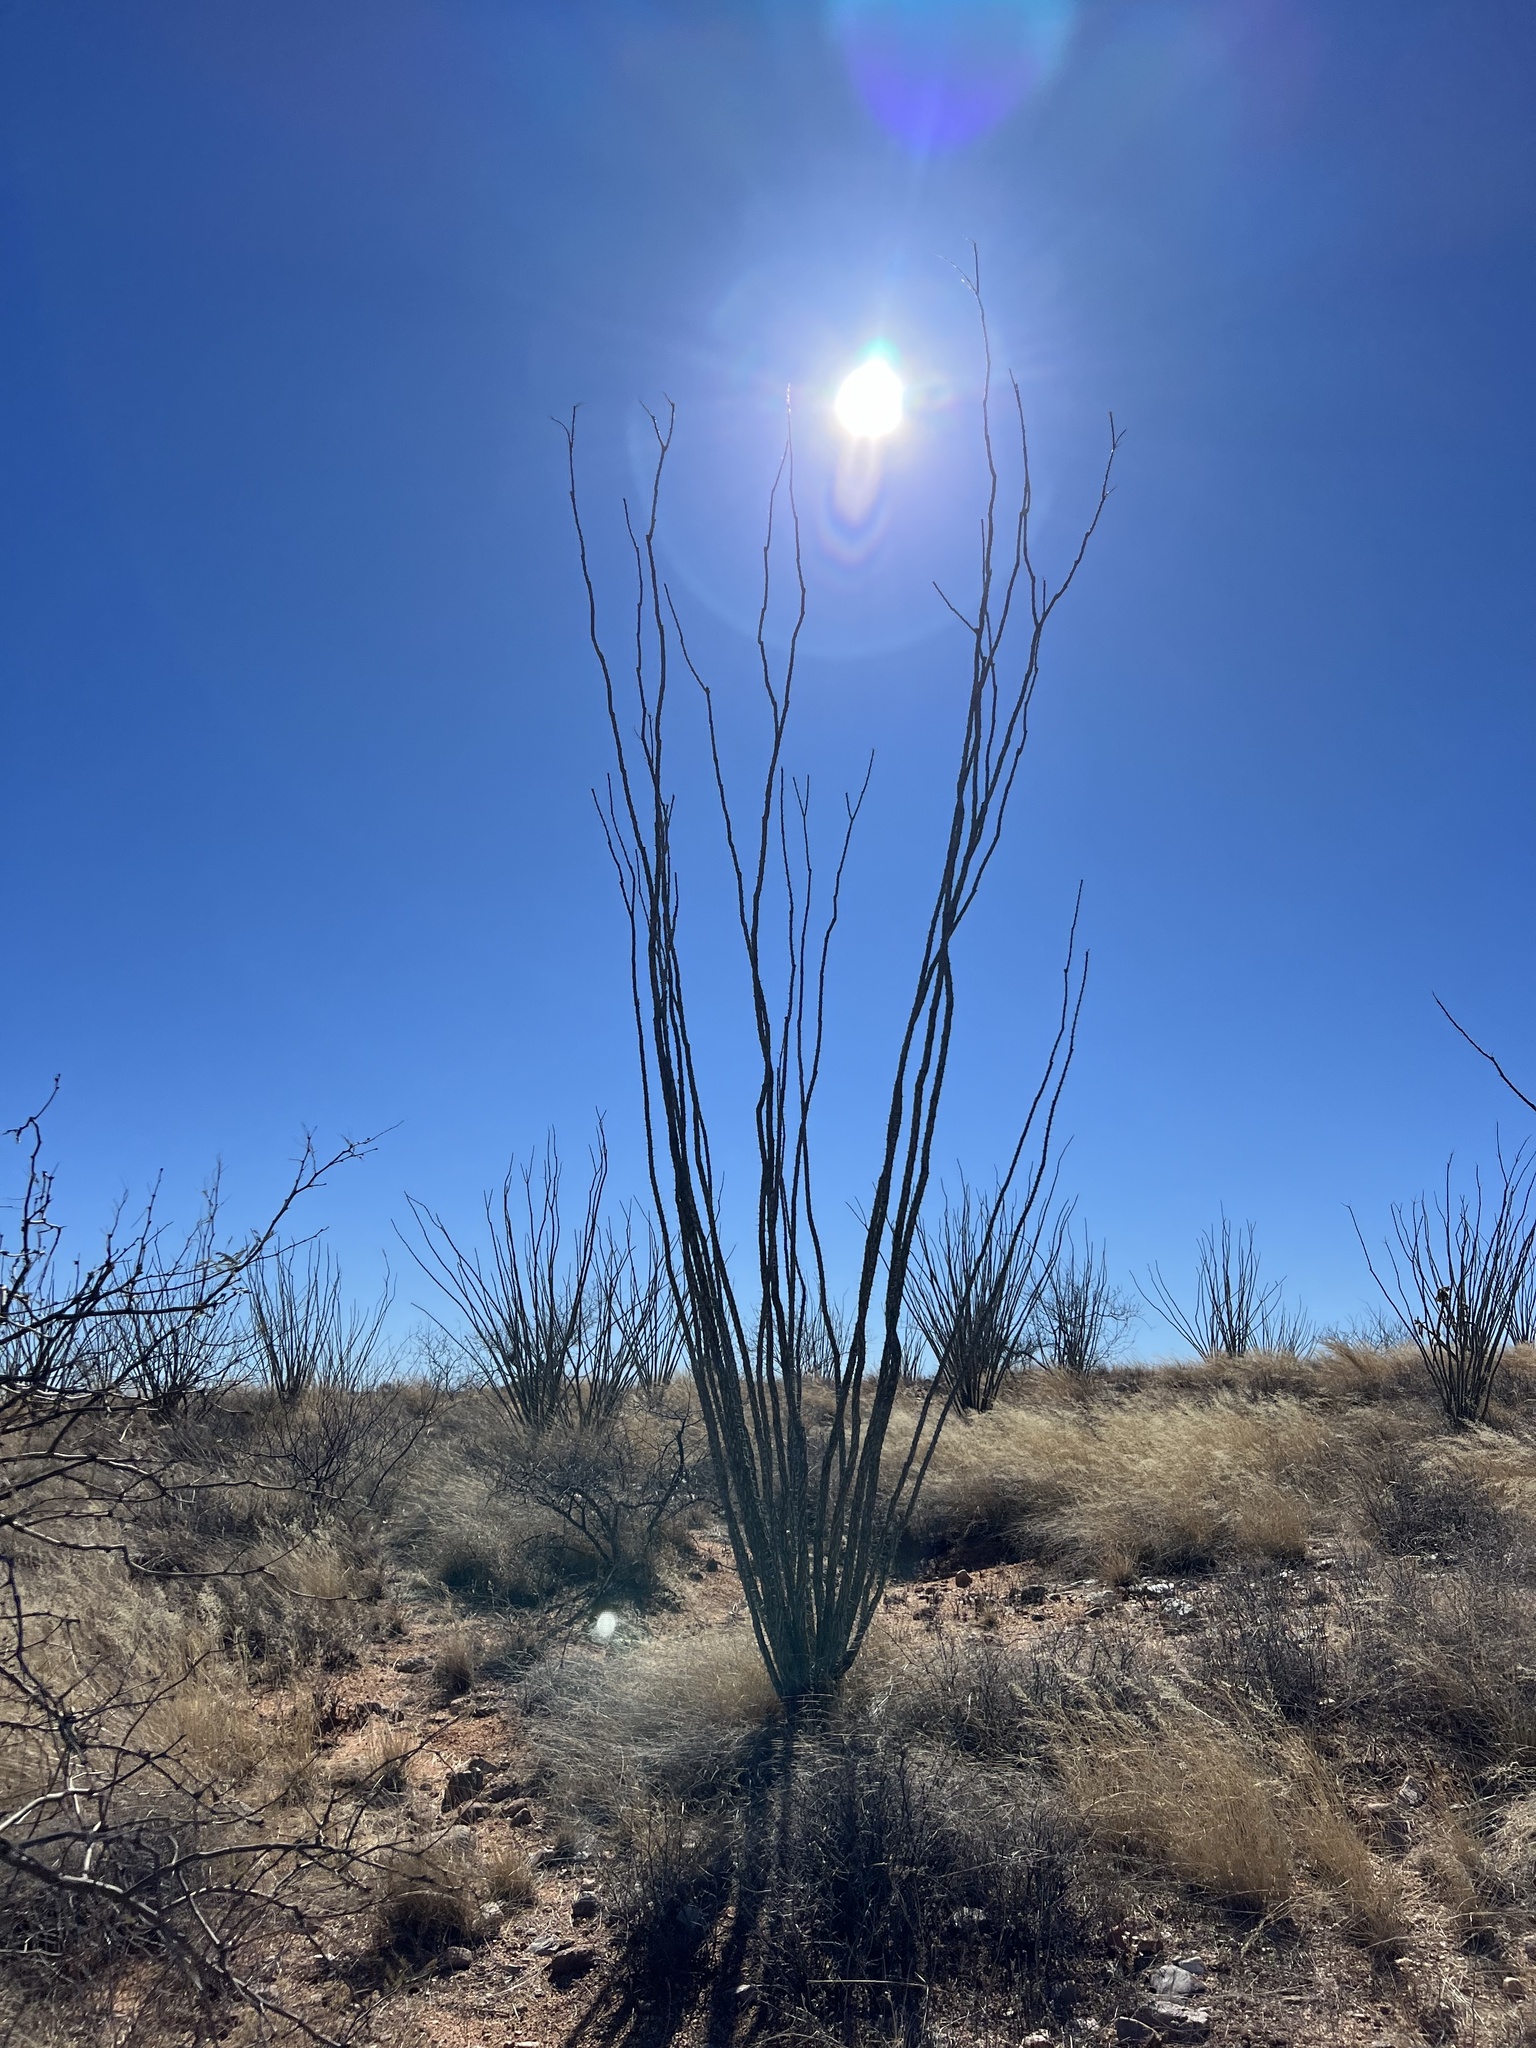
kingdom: Plantae
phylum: Tracheophyta
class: Magnoliopsida
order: Ericales
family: Fouquieriaceae
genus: Fouquieria
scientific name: Fouquieria splendens
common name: Vine-cactus
